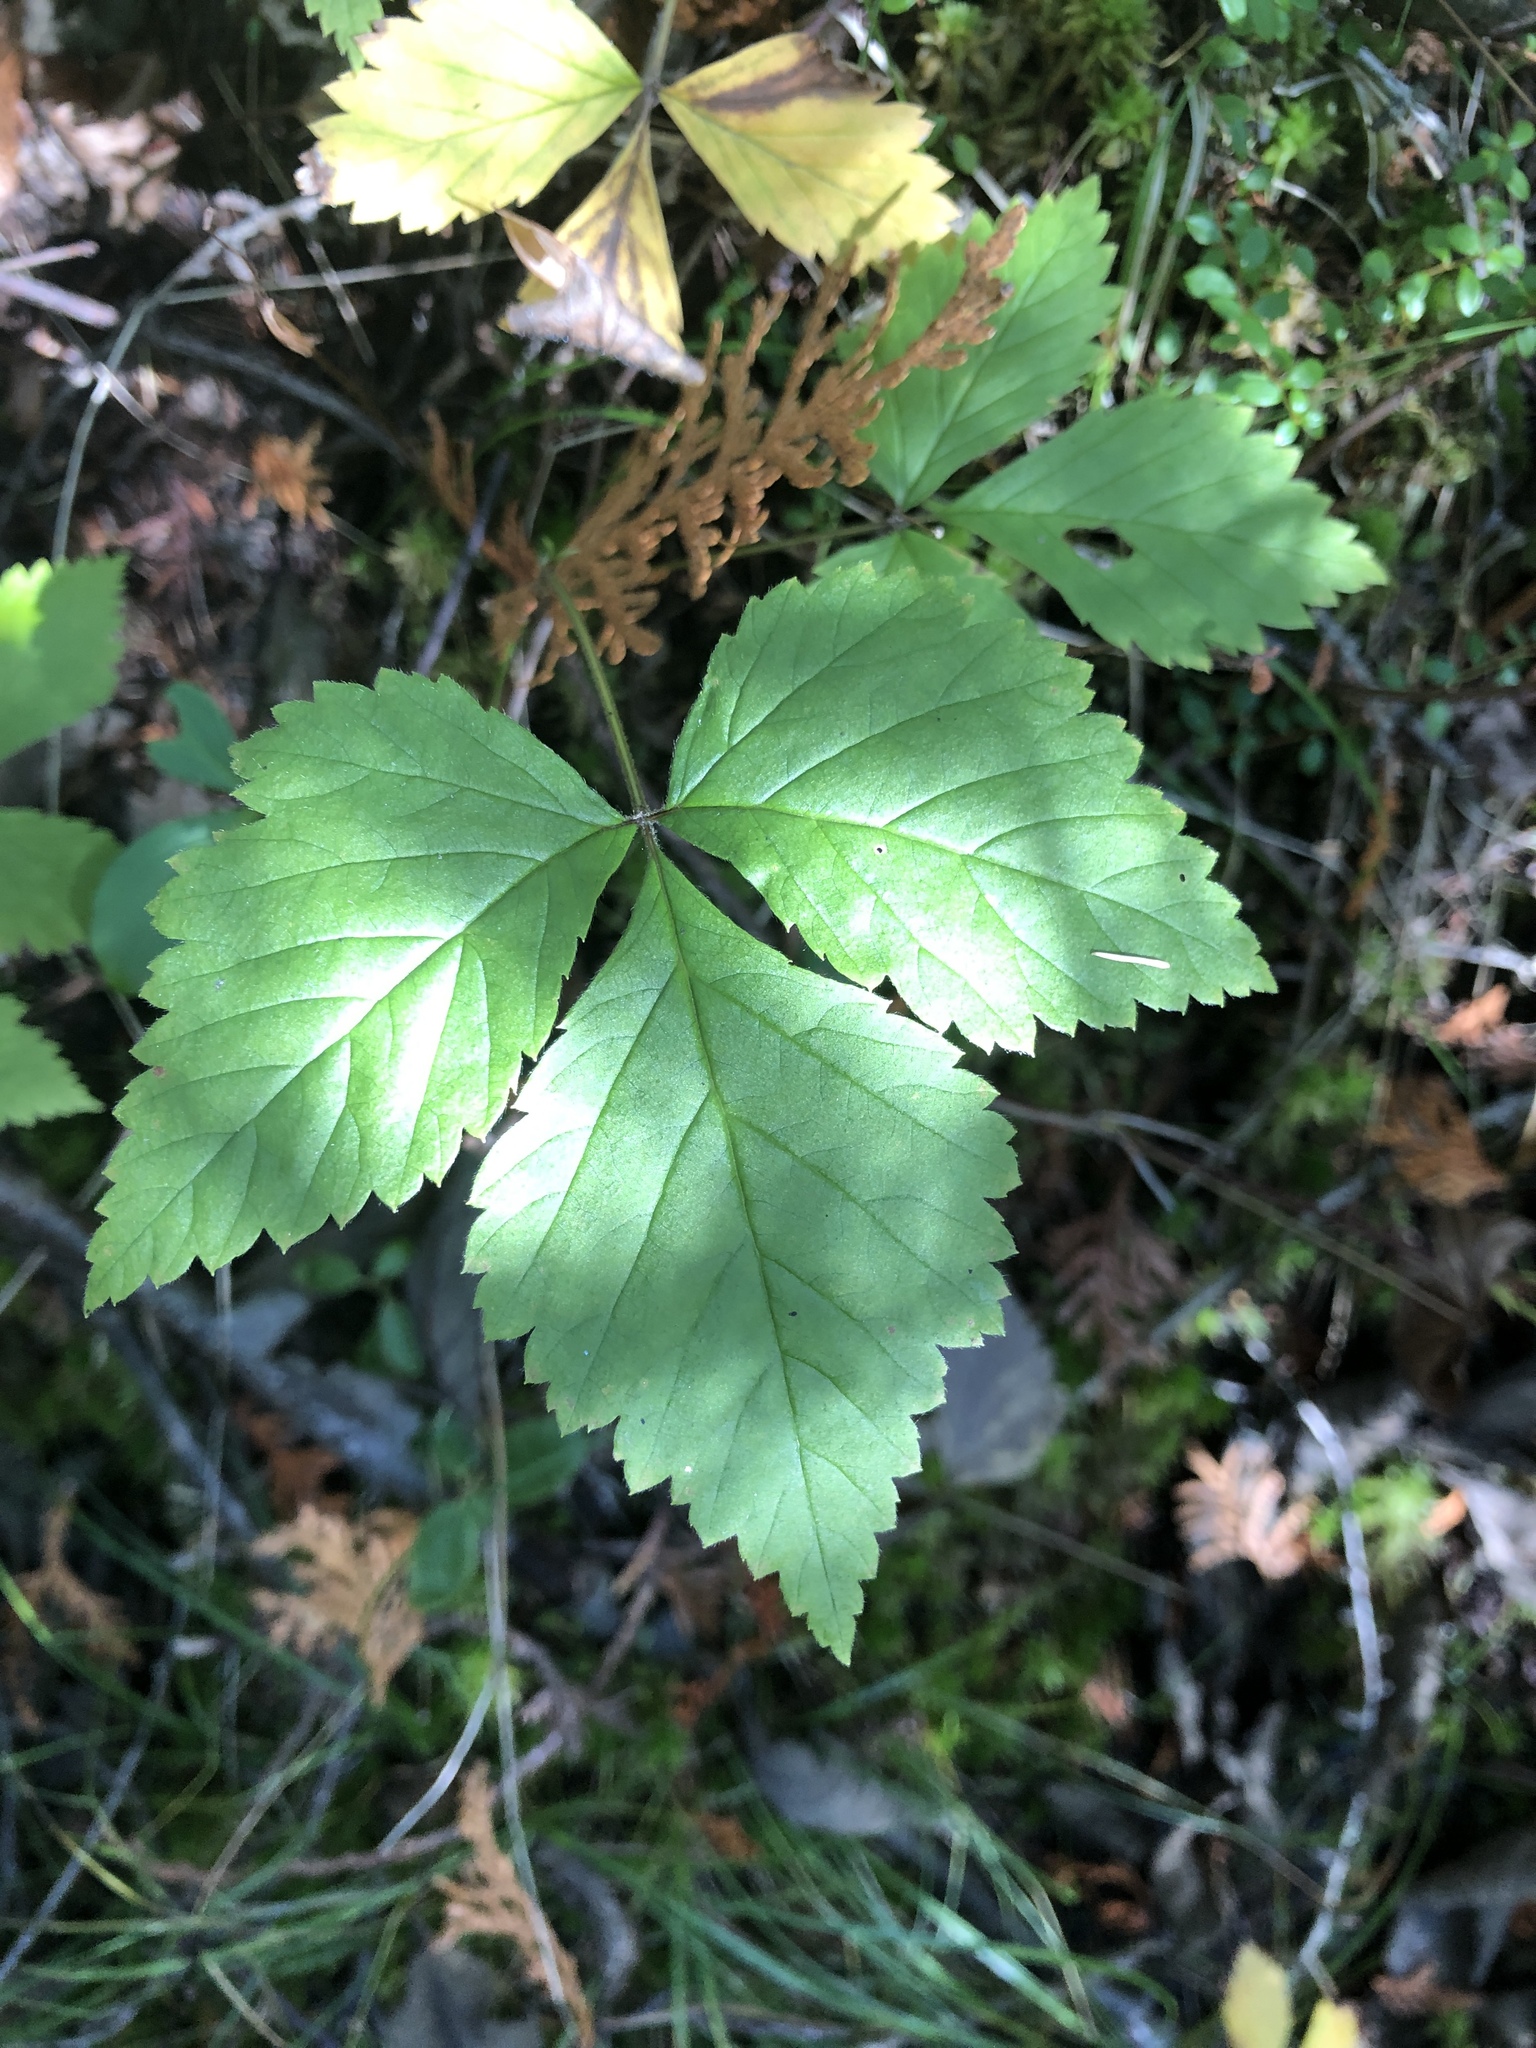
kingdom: Plantae
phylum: Tracheophyta
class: Magnoliopsida
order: Rosales
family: Rosaceae
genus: Rubus
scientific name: Rubus pubescens
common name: Dwarf raspberry
